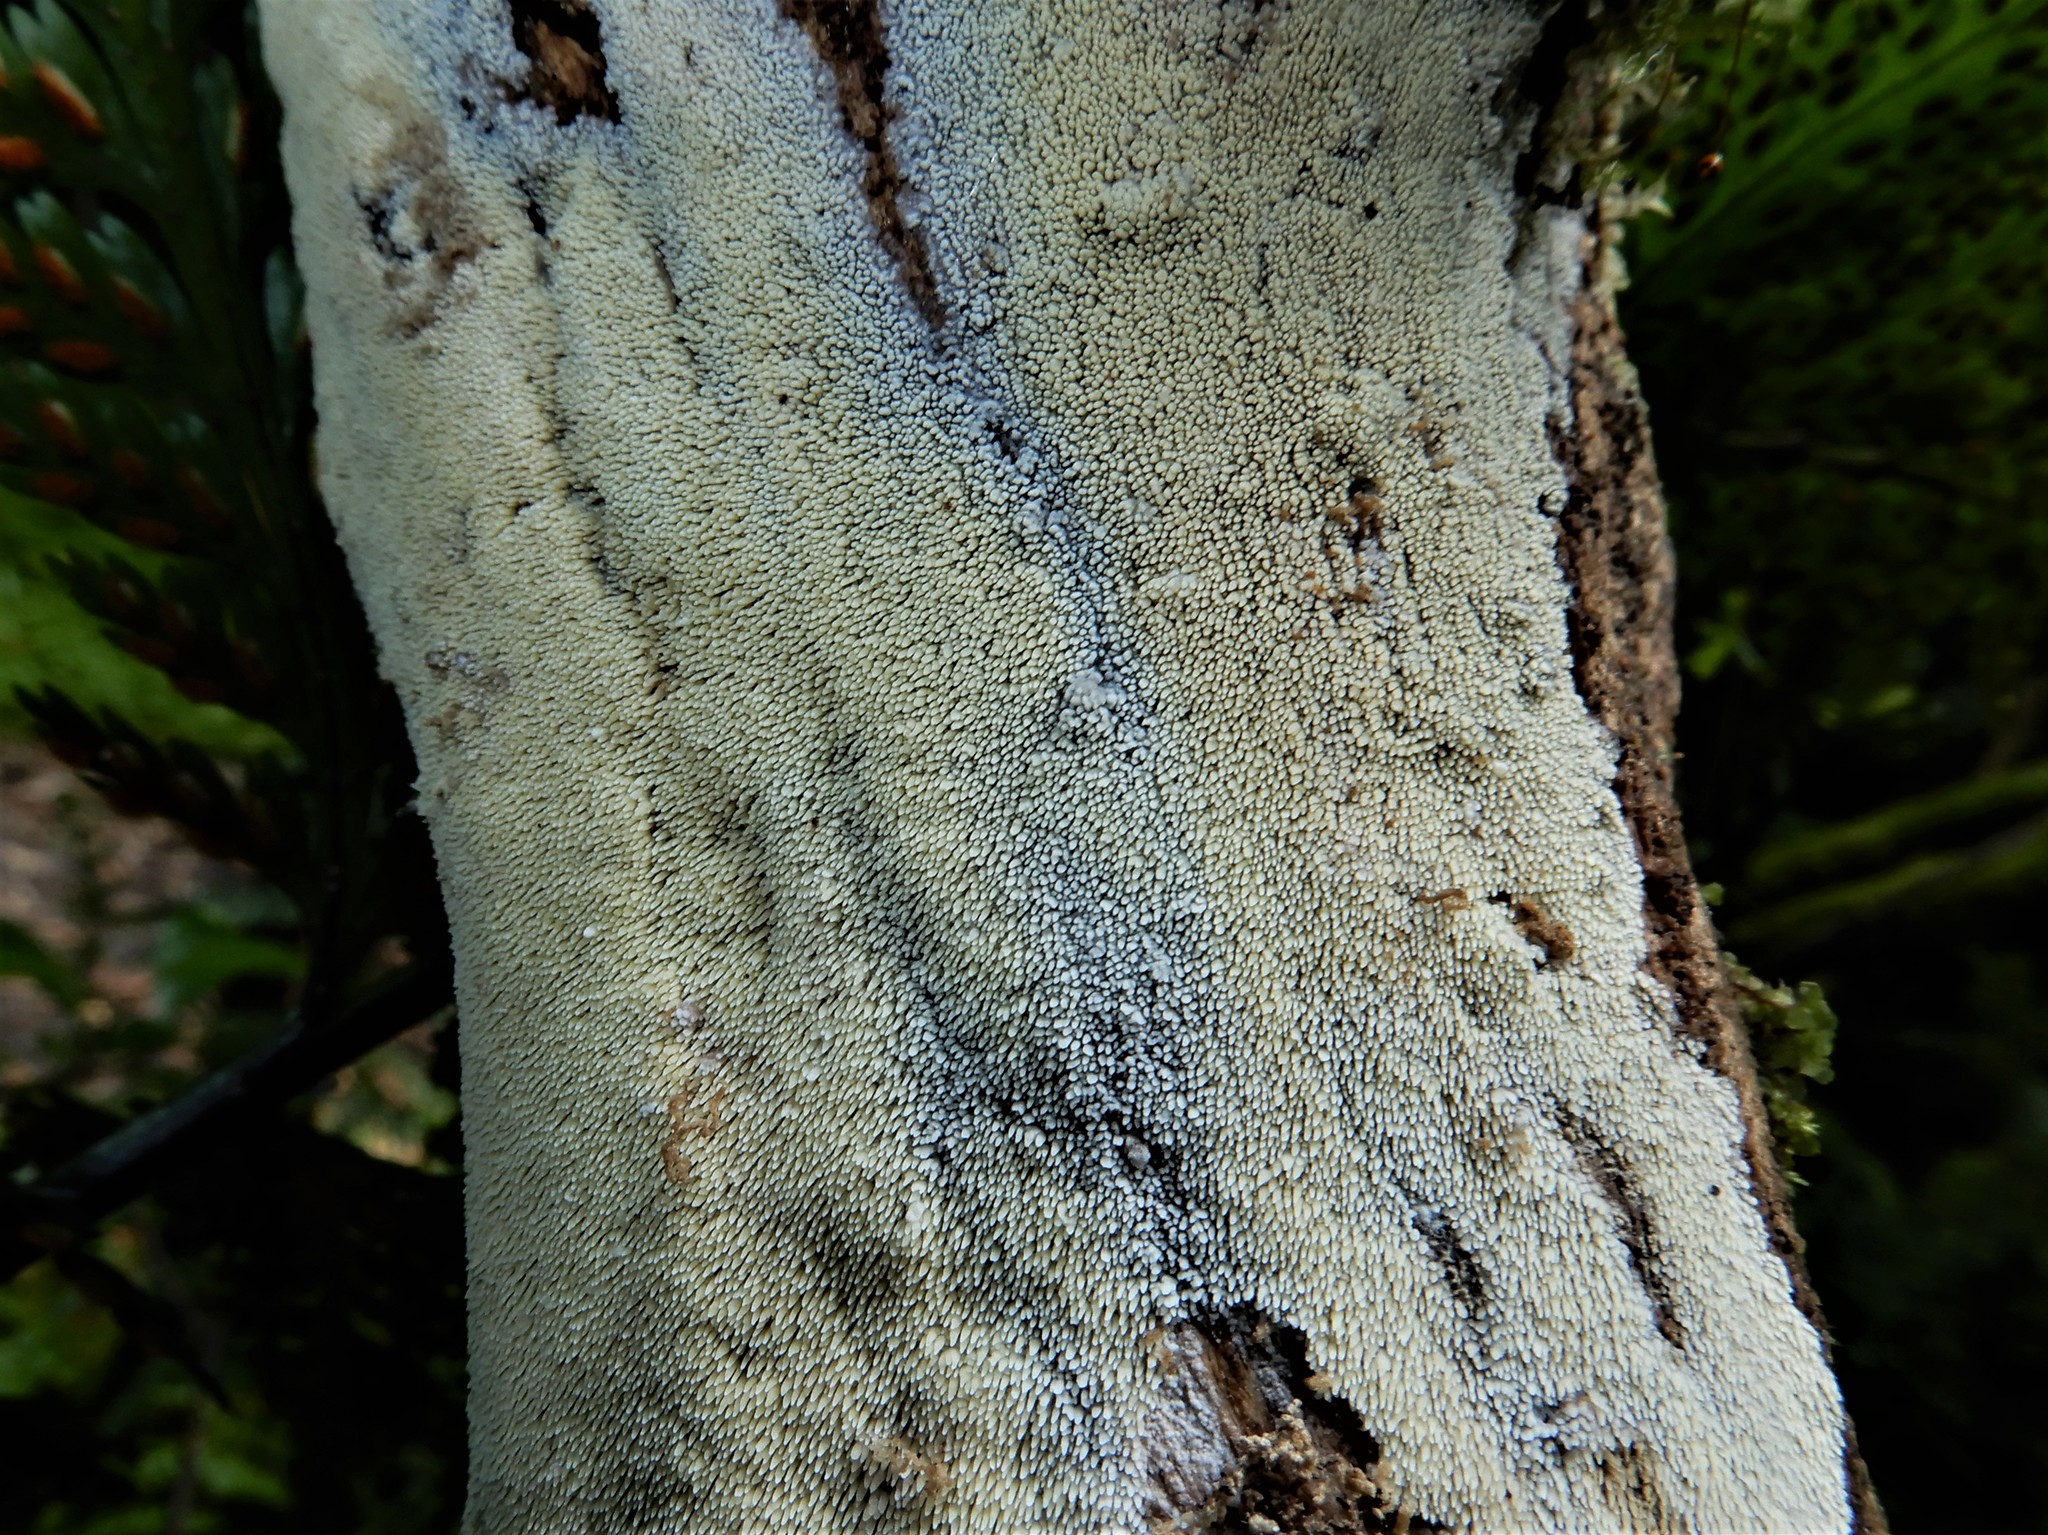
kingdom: Fungi
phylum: Basidiomycota
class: Agaricomycetes
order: Russulales
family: Hericiaceae
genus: Dentipellicula
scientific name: Dentipellicula leptodon
